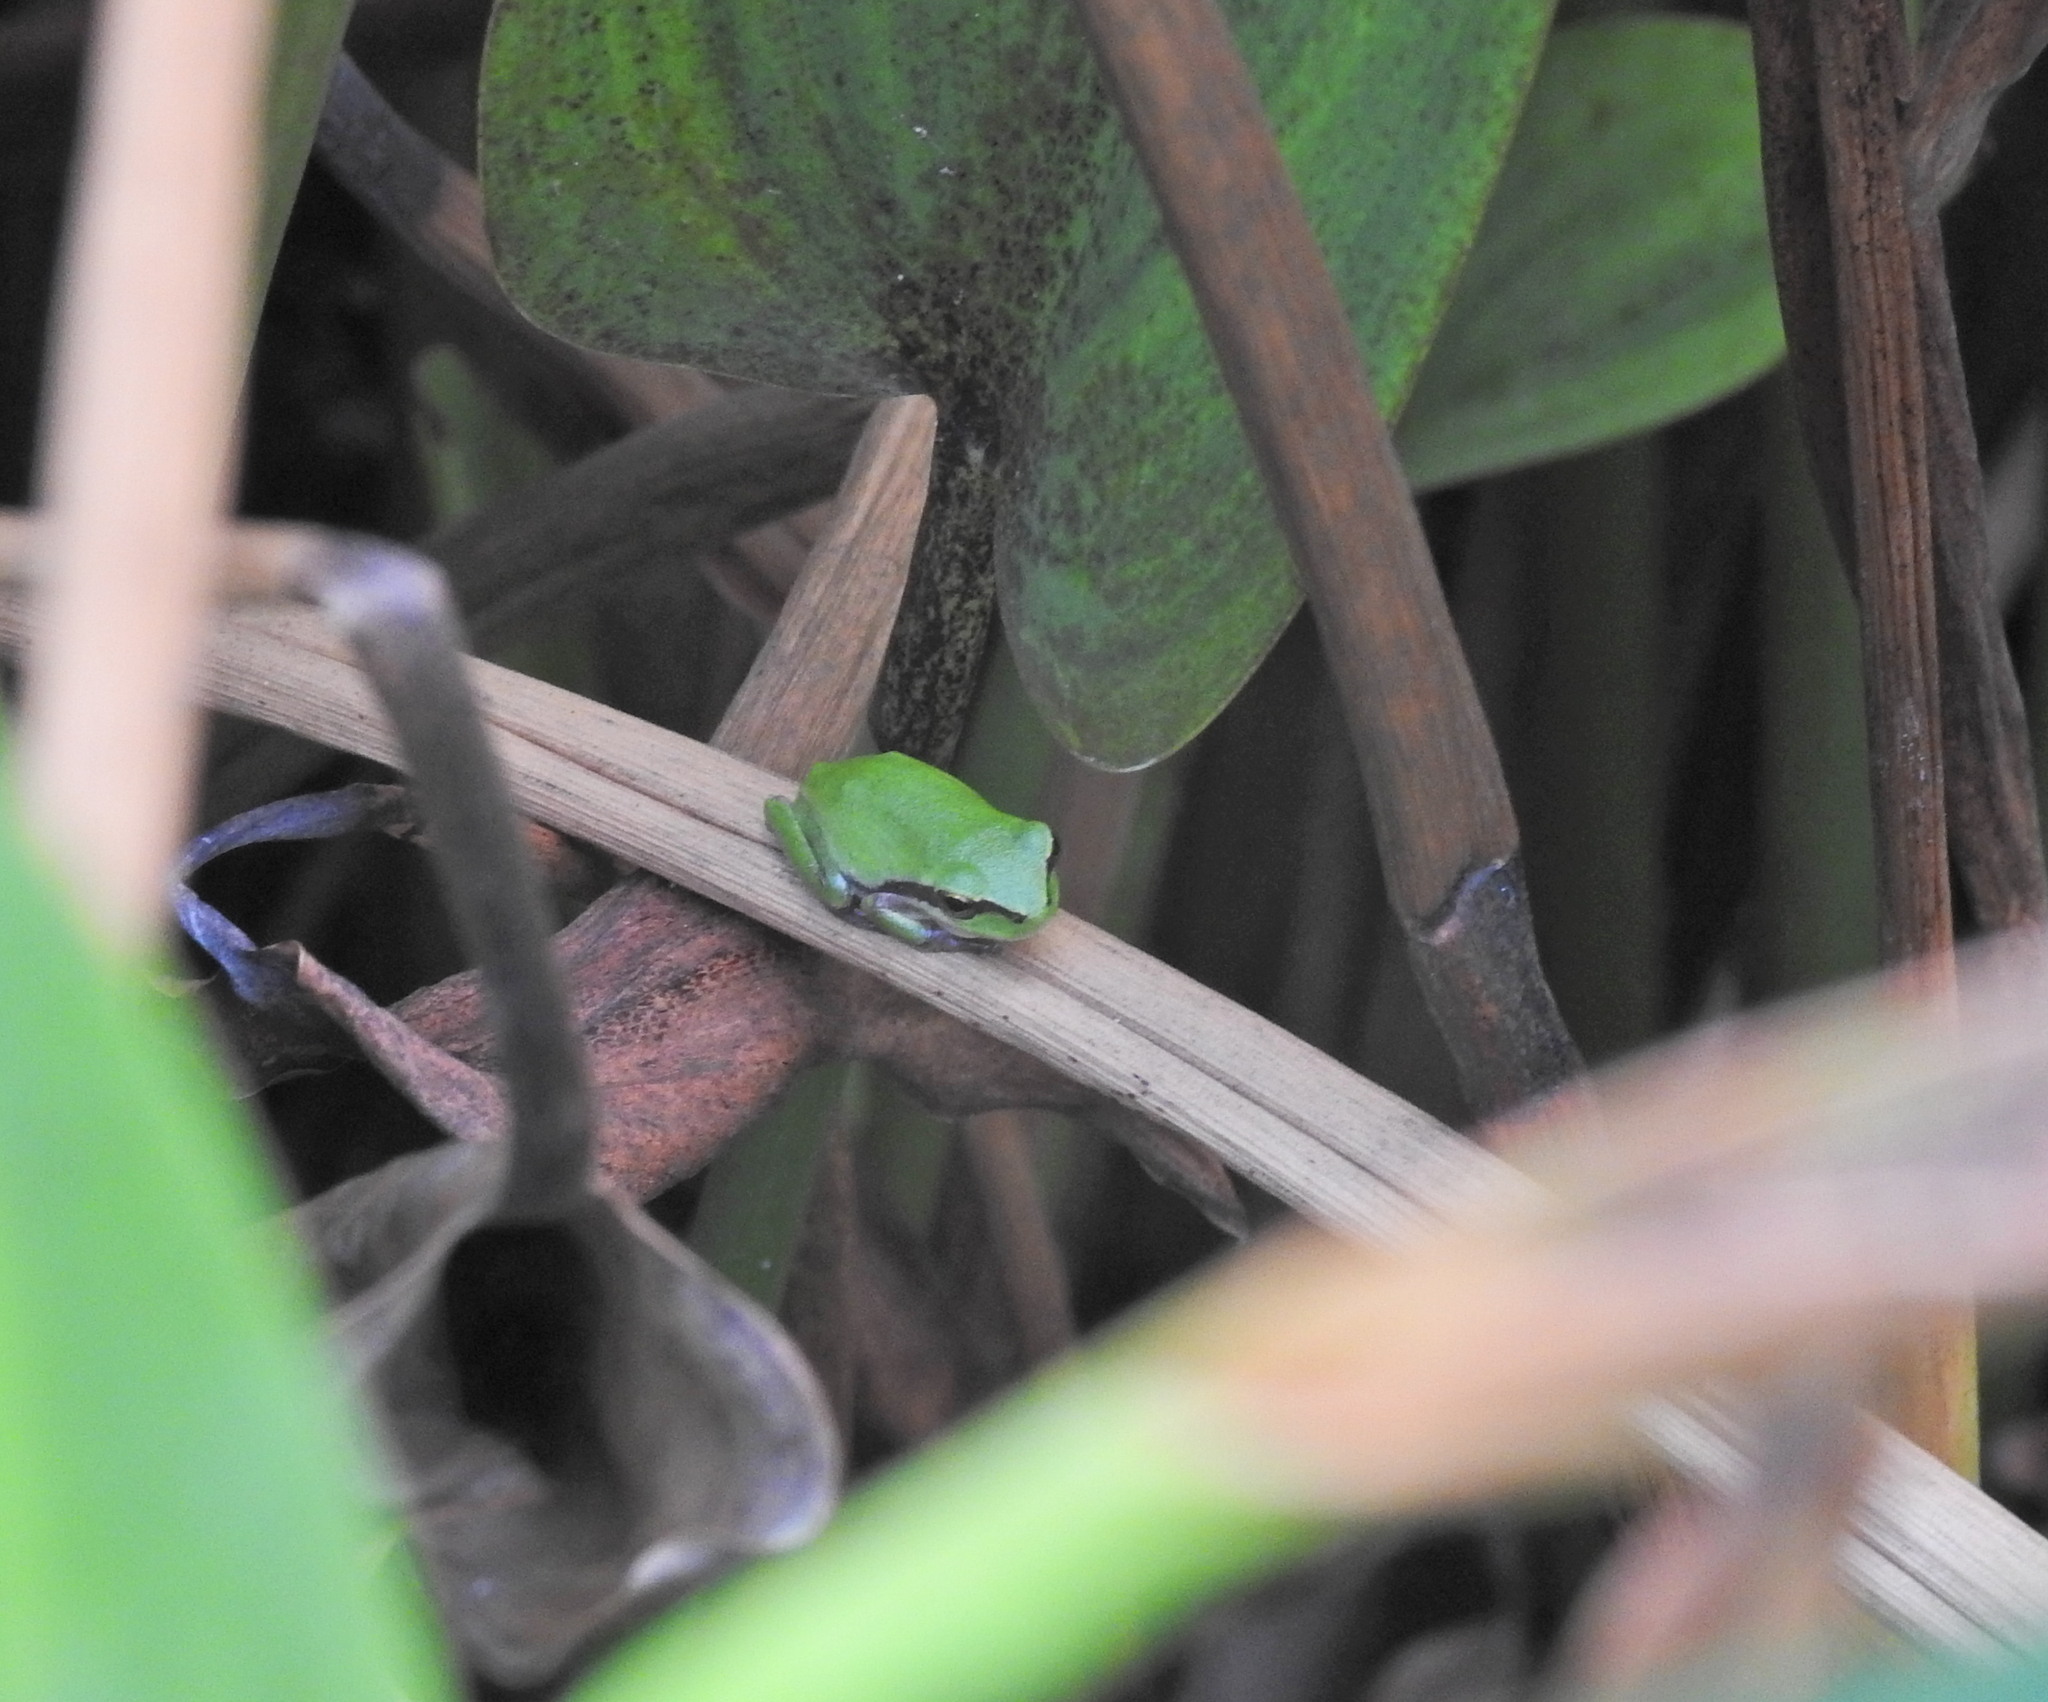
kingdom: Animalia
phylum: Chordata
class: Amphibia
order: Anura
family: Hylidae
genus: Hyla
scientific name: Hyla meridionalis
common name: Stripeless tree frog
